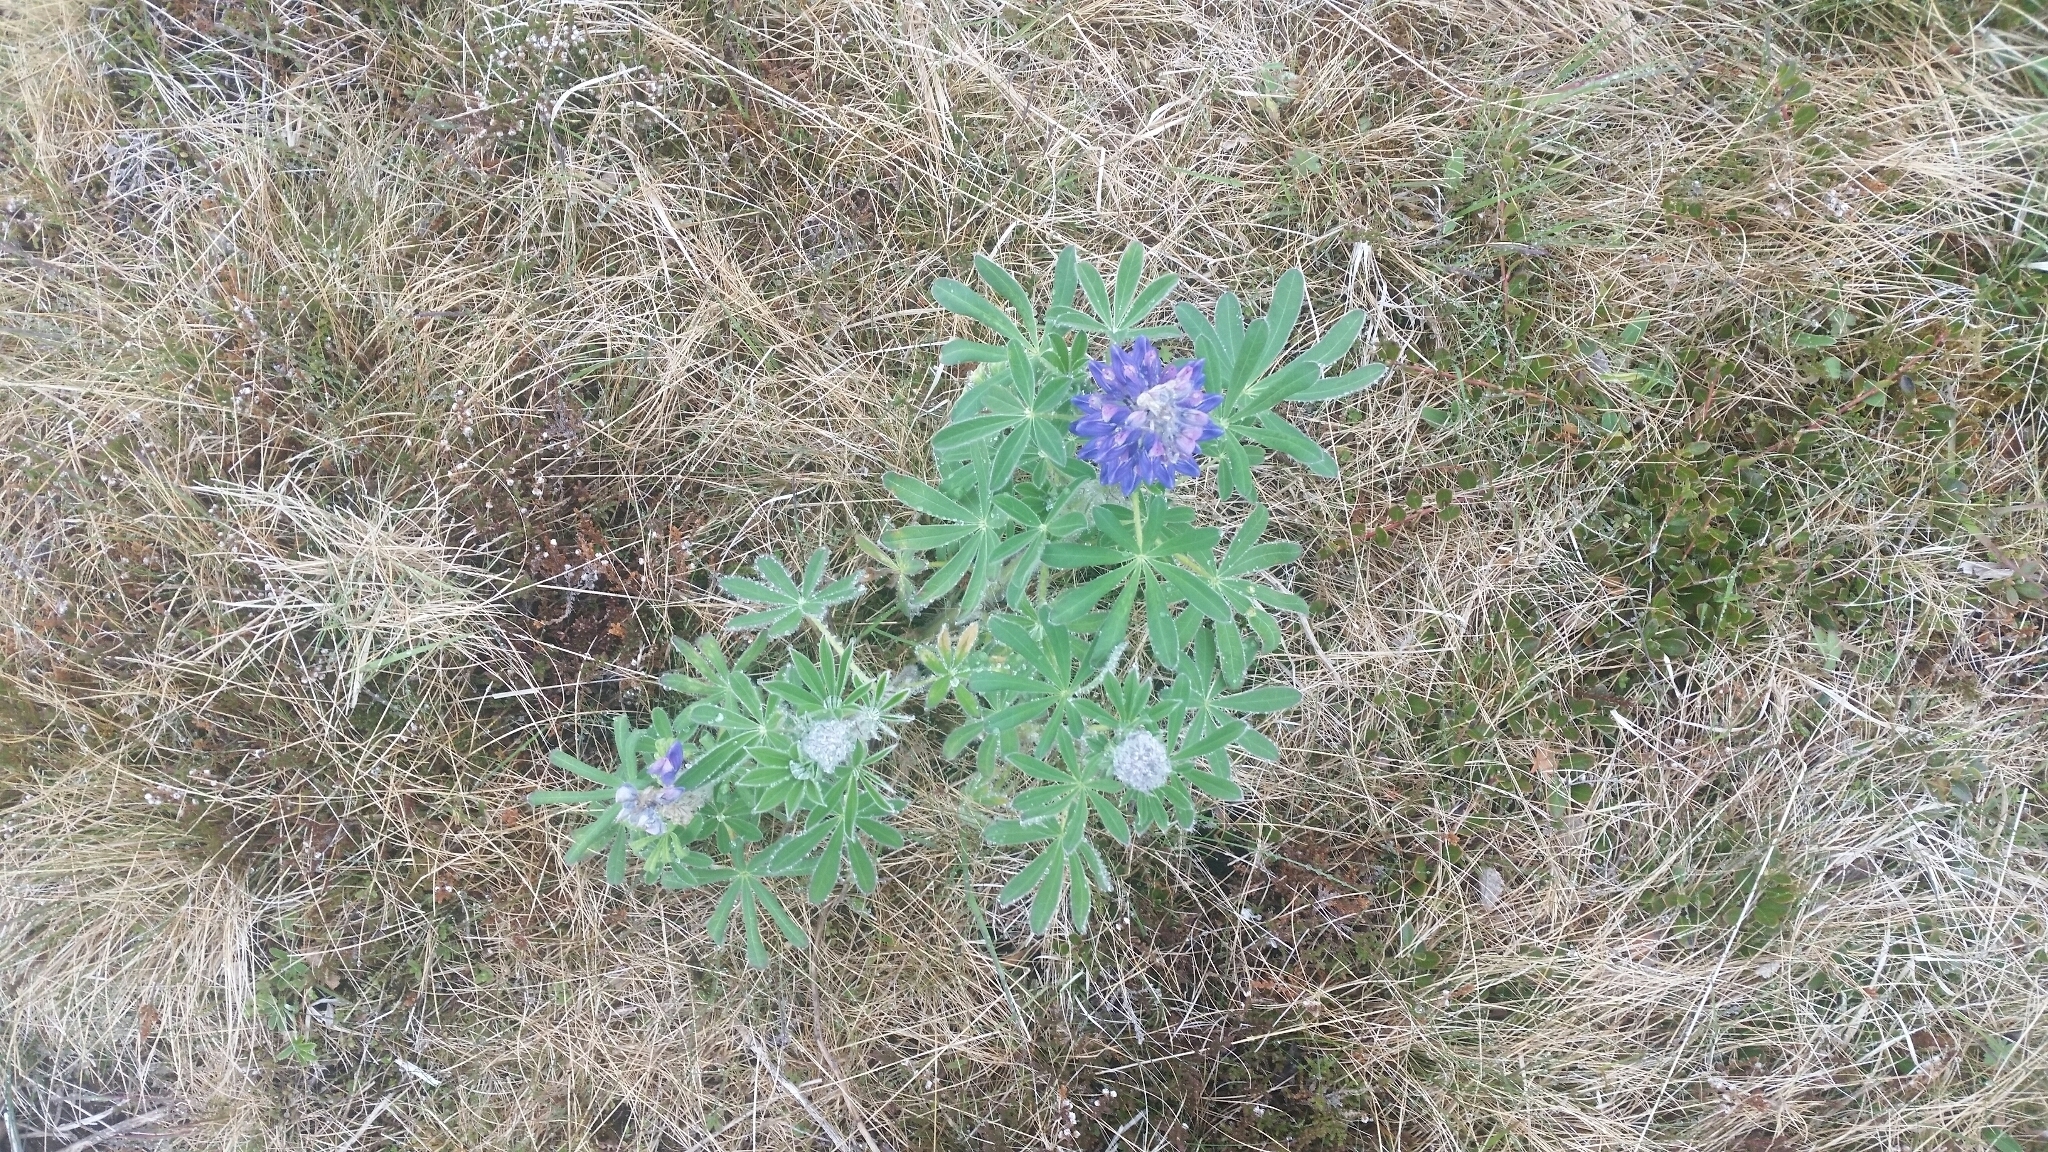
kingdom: Plantae
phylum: Tracheophyta
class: Magnoliopsida
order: Fabales
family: Fabaceae
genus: Lupinus
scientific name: Lupinus nootkatensis
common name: Nootka lupine
